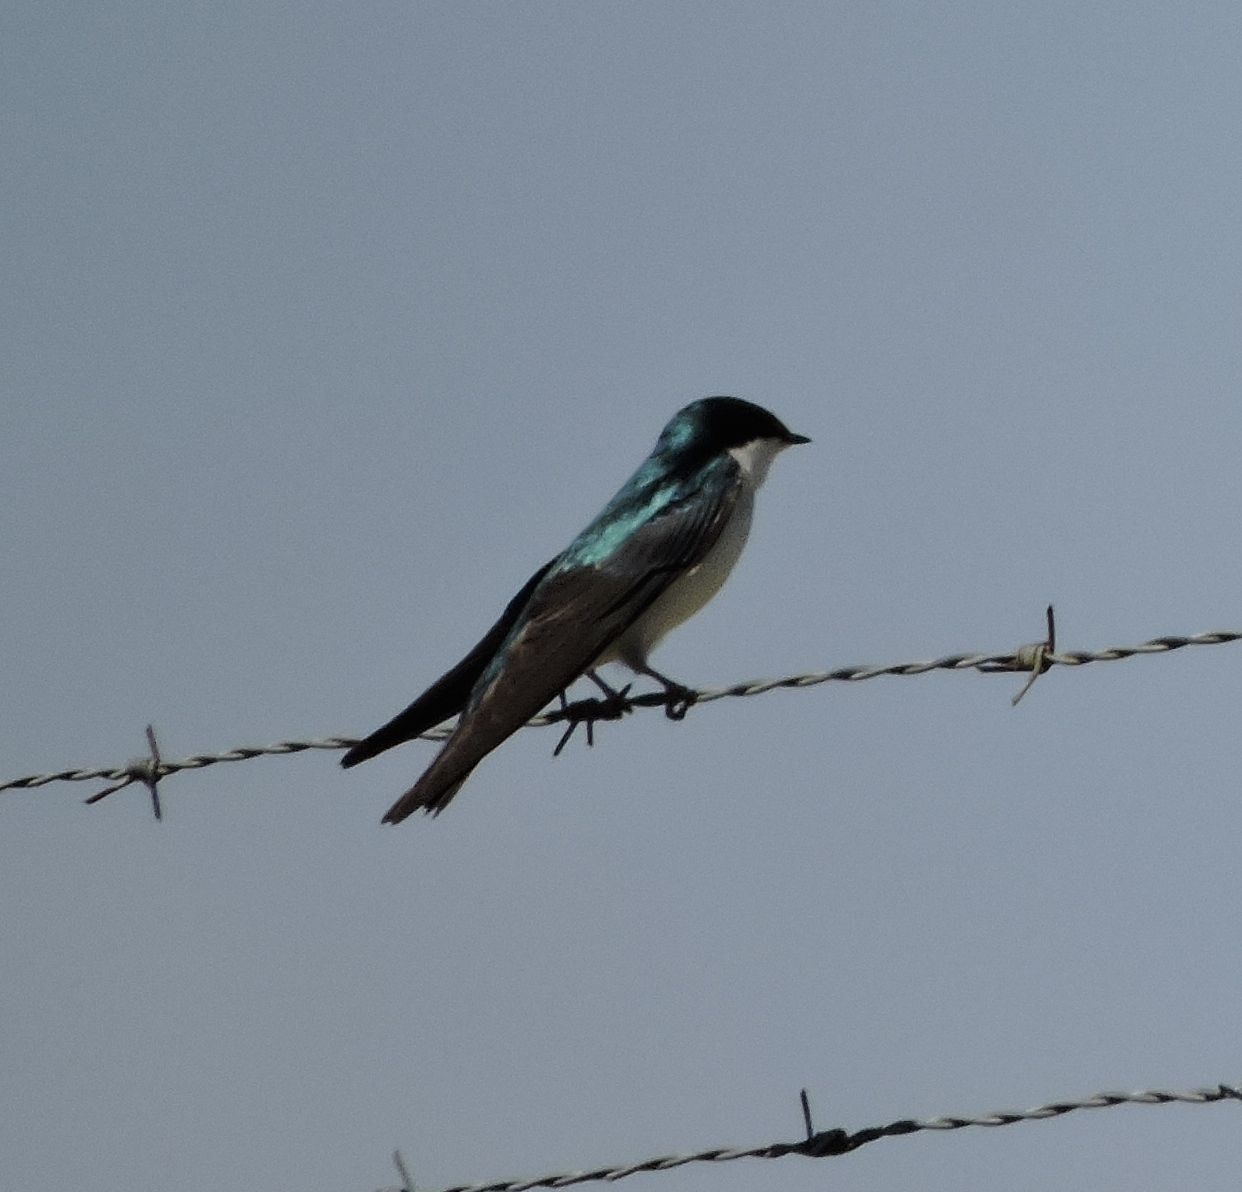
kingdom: Animalia
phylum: Chordata
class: Aves
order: Passeriformes
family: Hirundinidae
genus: Tachycineta
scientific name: Tachycineta bicolor
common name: Tree swallow
